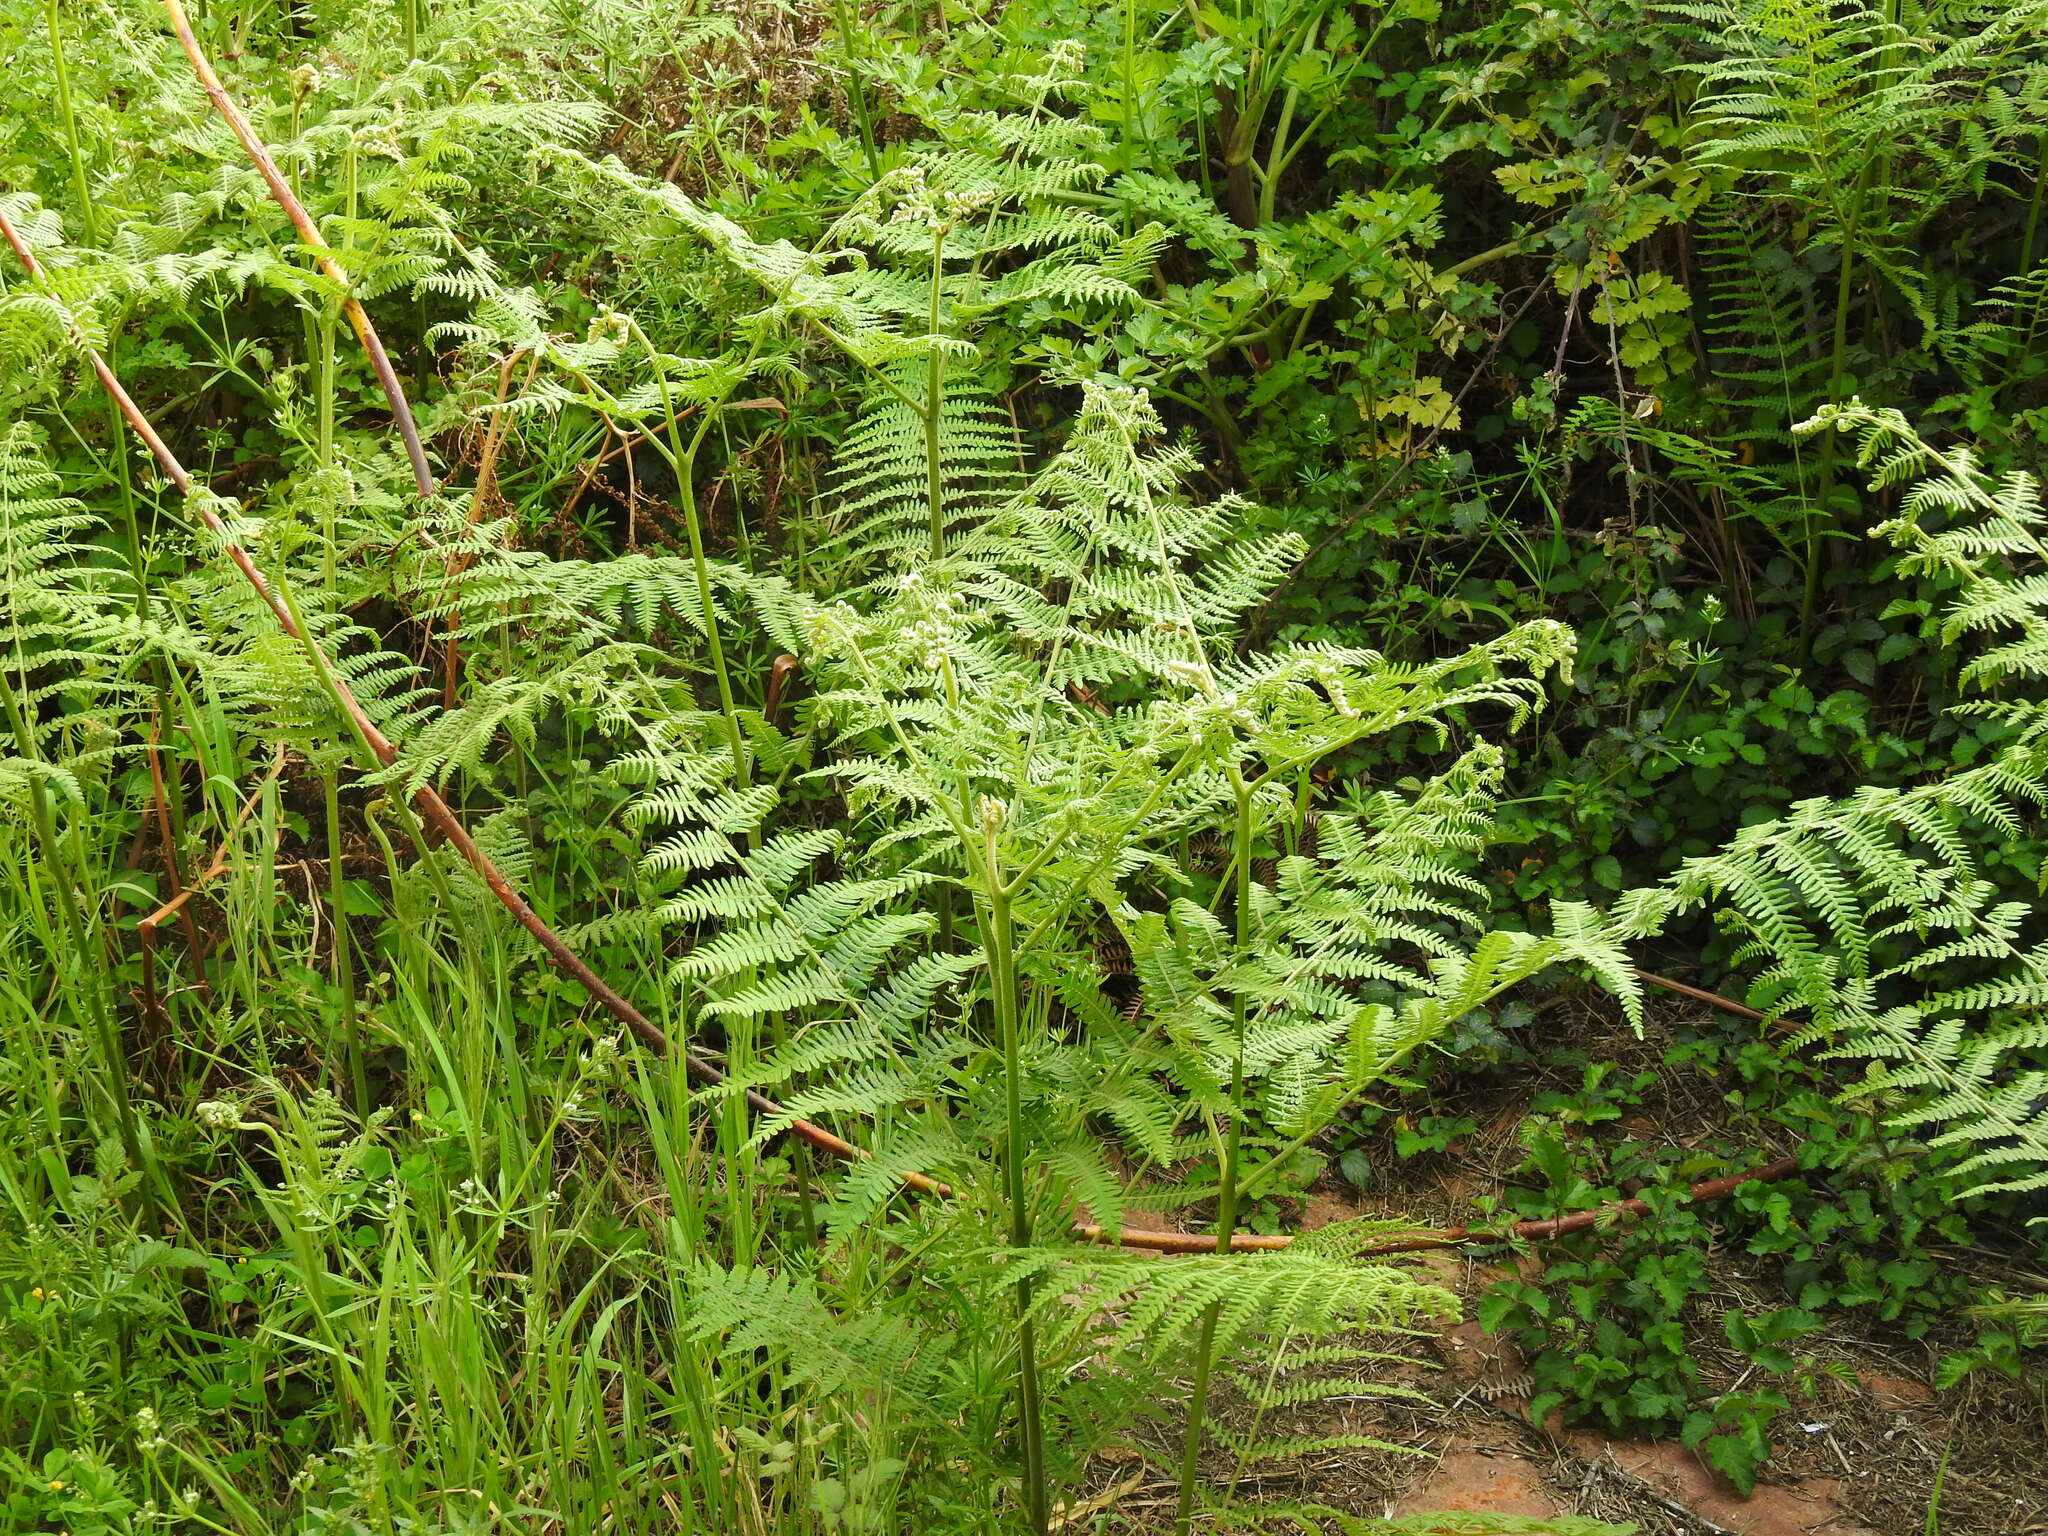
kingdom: Plantae
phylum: Tracheophyta
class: Polypodiopsida
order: Polypodiales
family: Dennstaedtiaceae
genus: Pteridium
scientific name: Pteridium aquilinum
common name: Bracken
